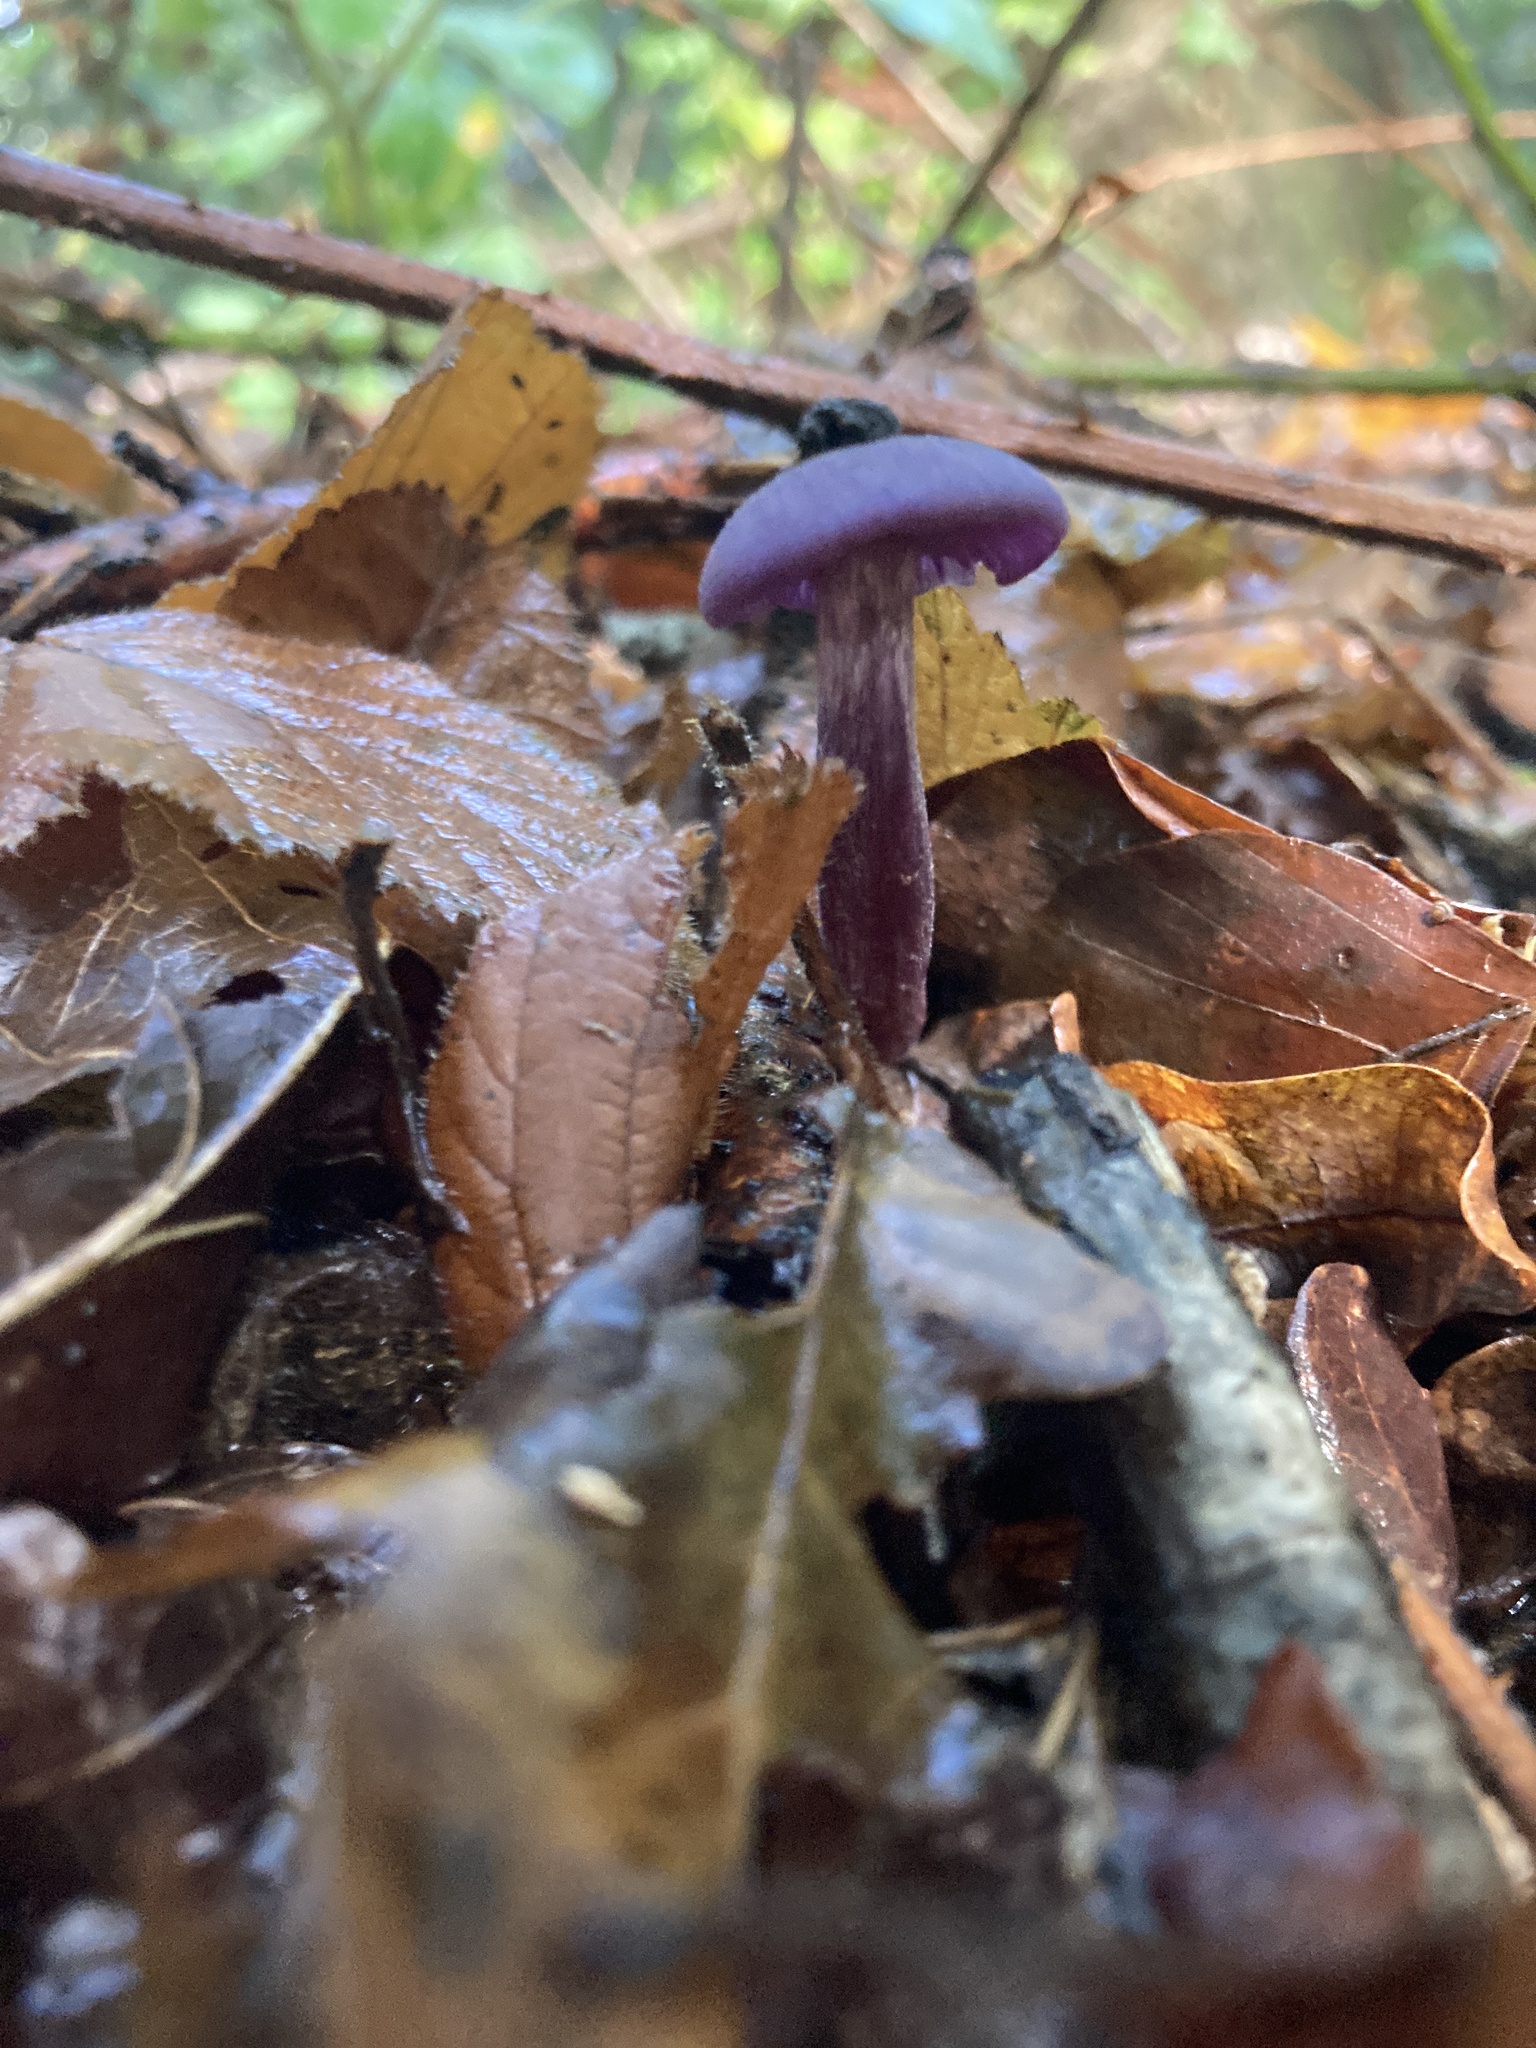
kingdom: Fungi
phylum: Basidiomycota
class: Agaricomycetes
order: Agaricales
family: Hydnangiaceae
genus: Laccaria
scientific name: Laccaria amethystina
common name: Amethyst deceiver
